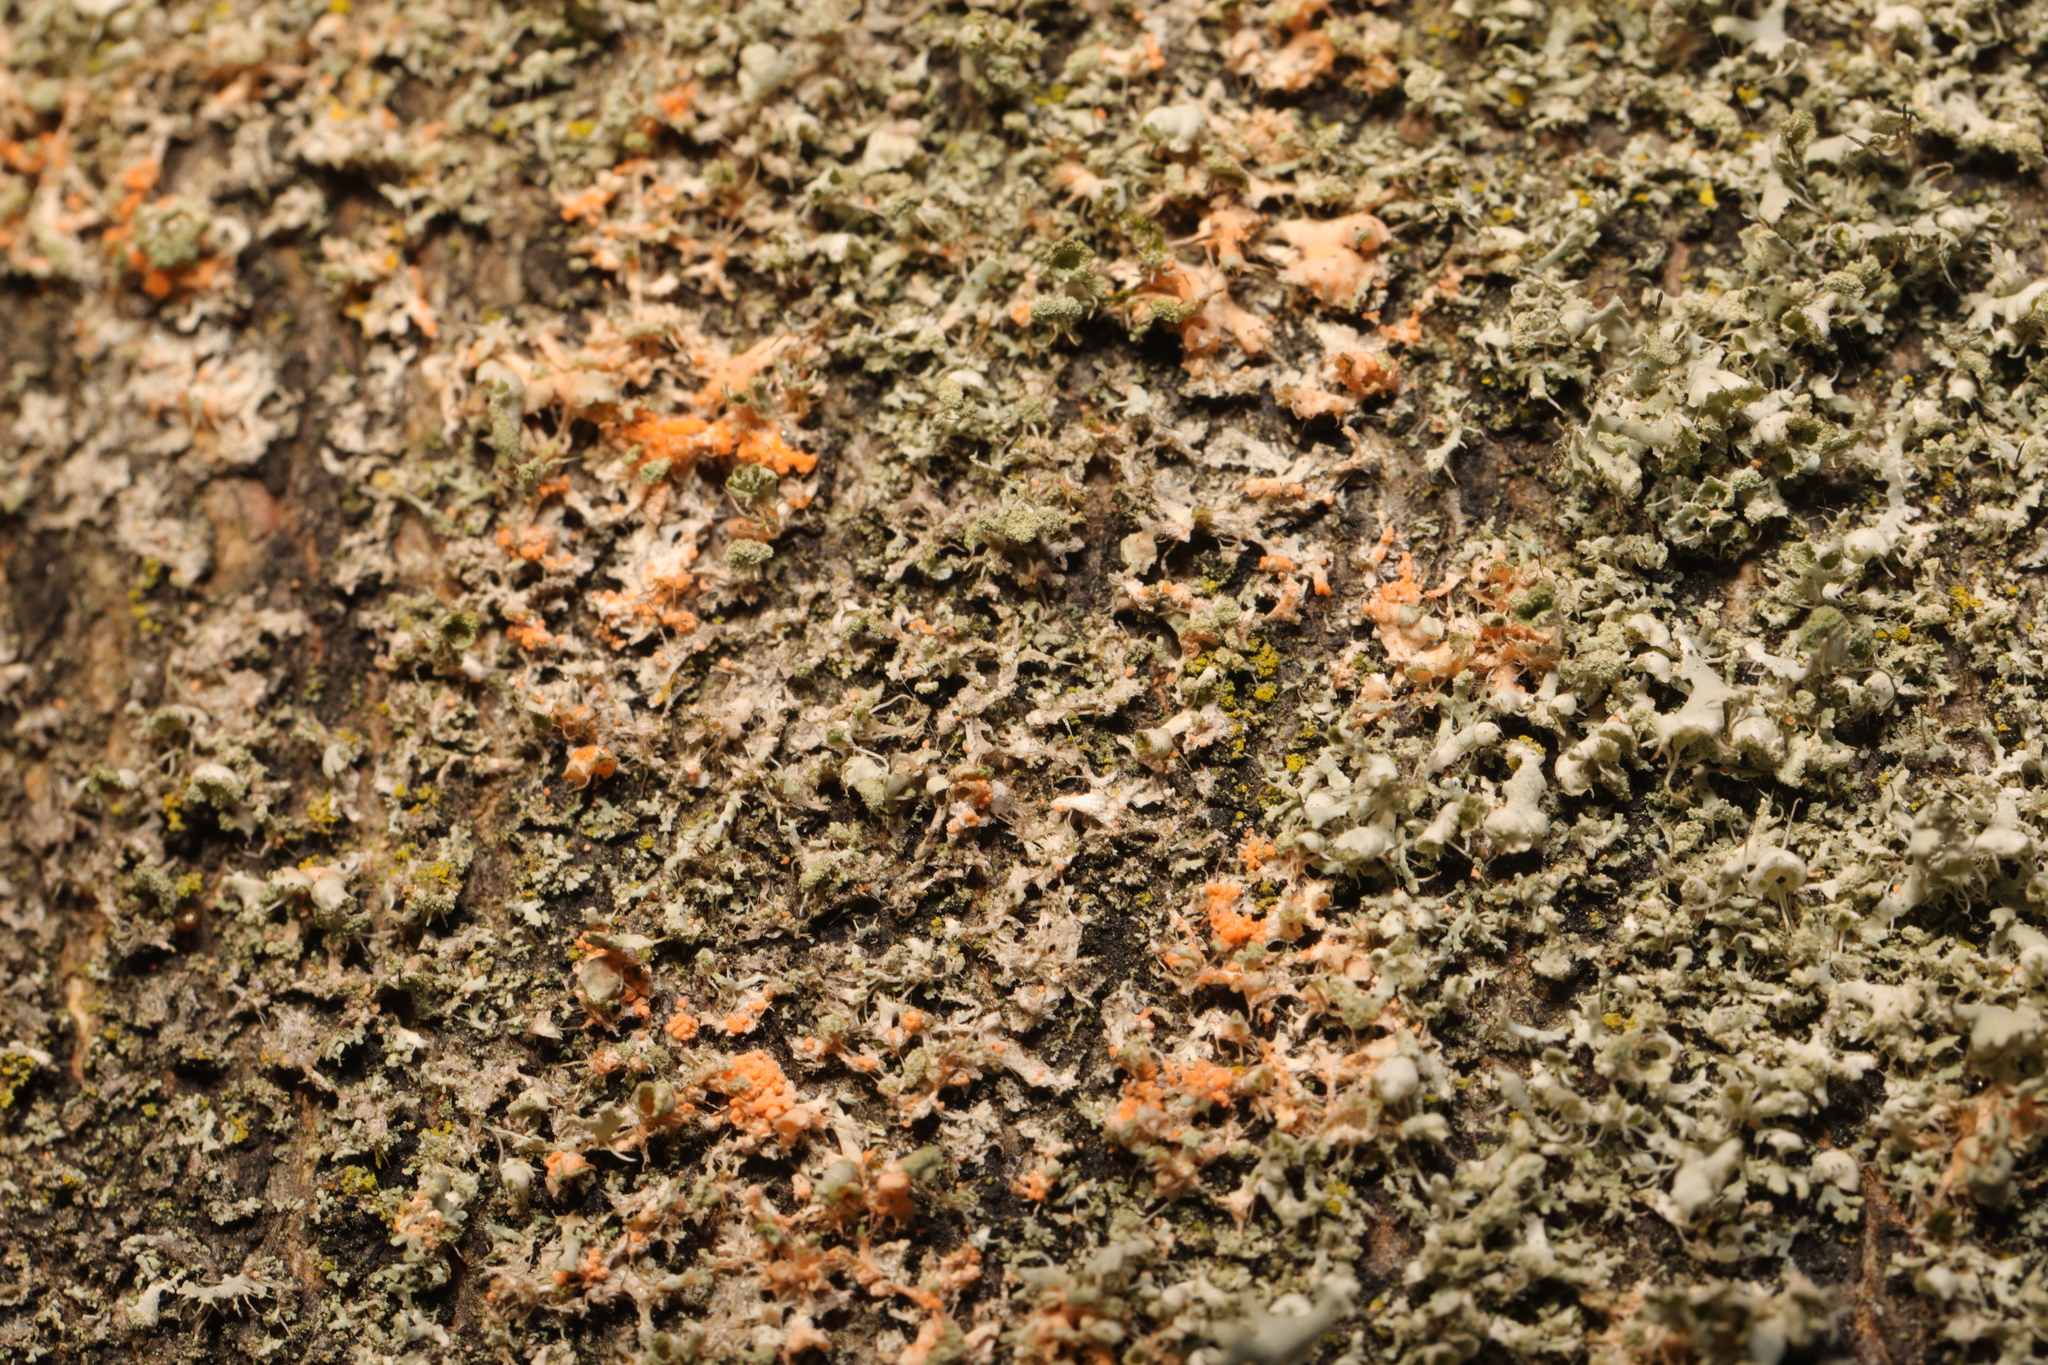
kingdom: Fungi
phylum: Basidiomycota
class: Agaricomycetes
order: Corticiales
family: Corticiaceae
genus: Erythricium
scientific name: Erythricium aurantiacum
